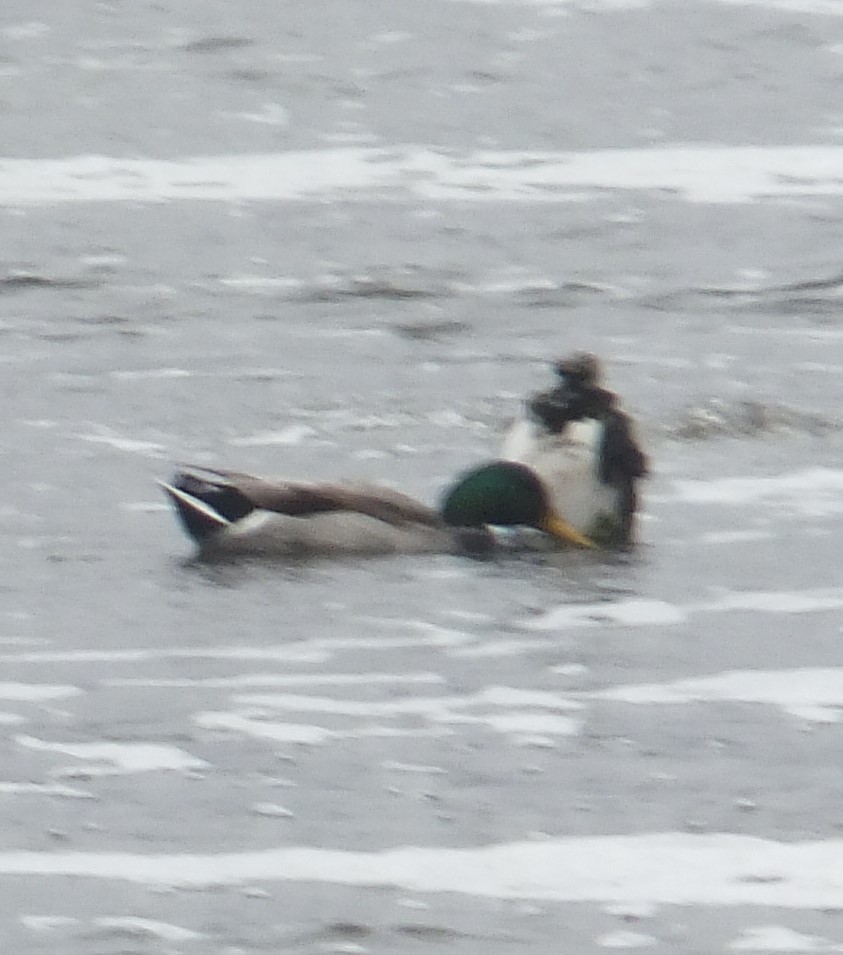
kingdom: Animalia
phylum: Chordata
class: Aves
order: Anseriformes
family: Anatidae
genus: Anas
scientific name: Anas platyrhynchos
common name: Mallard
